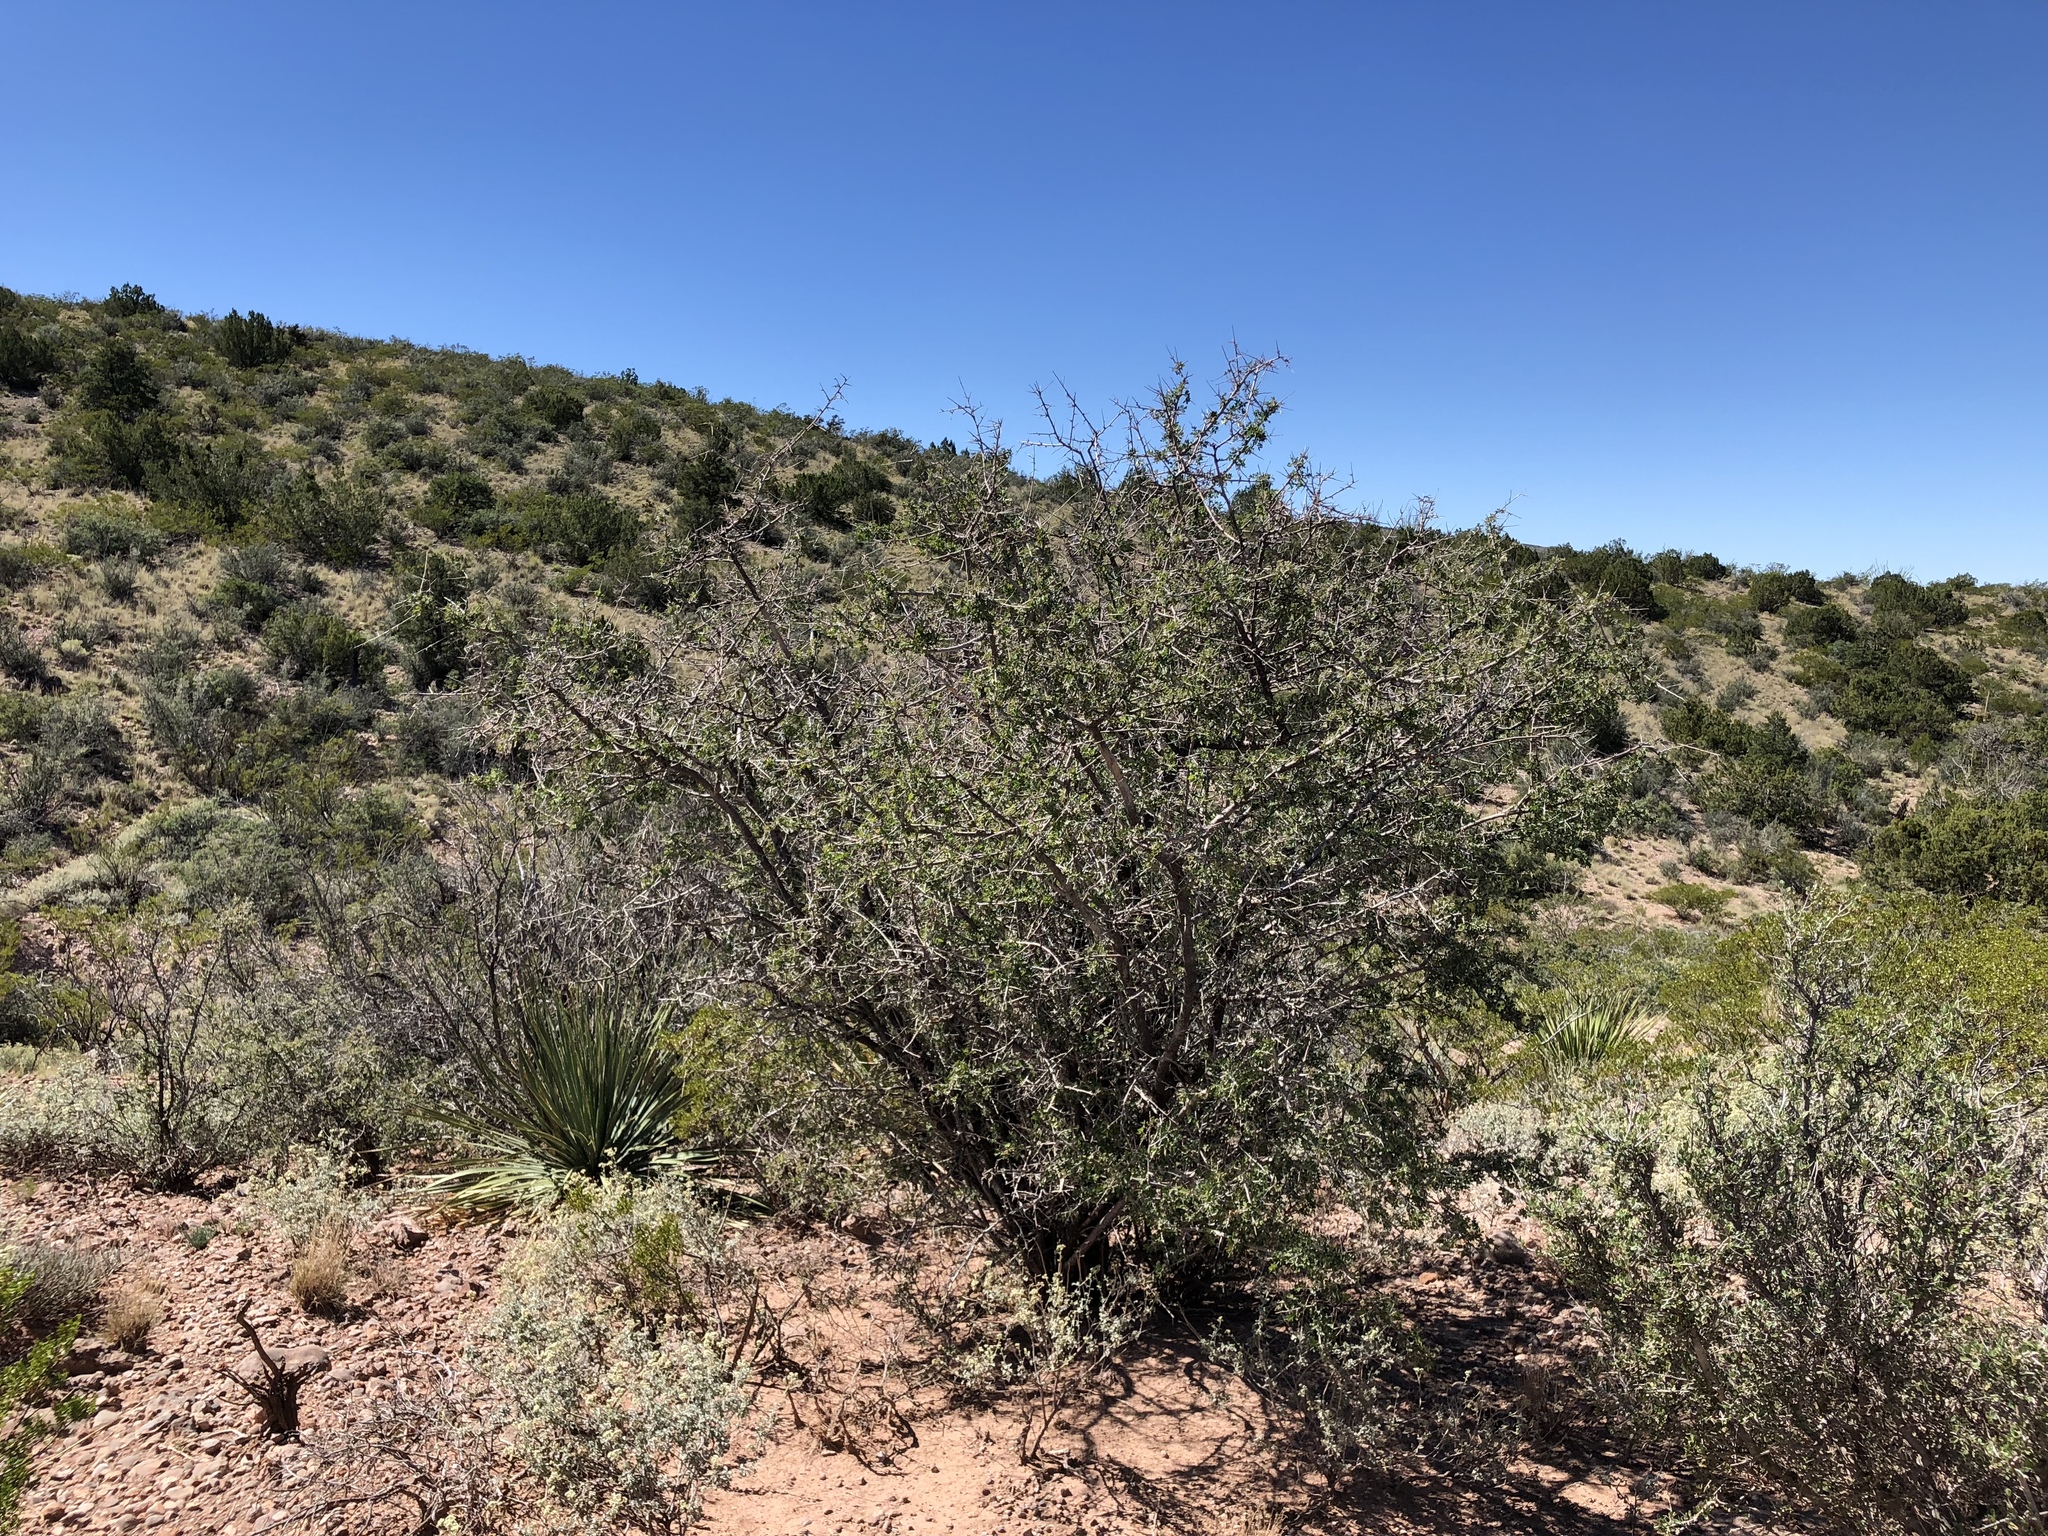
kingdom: Plantae
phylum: Tracheophyta
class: Magnoliopsida
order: Rosales
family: Rosaceae
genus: Cercocarpus
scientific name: Cercocarpus breviflorus
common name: Wright's mountain-mahogany
